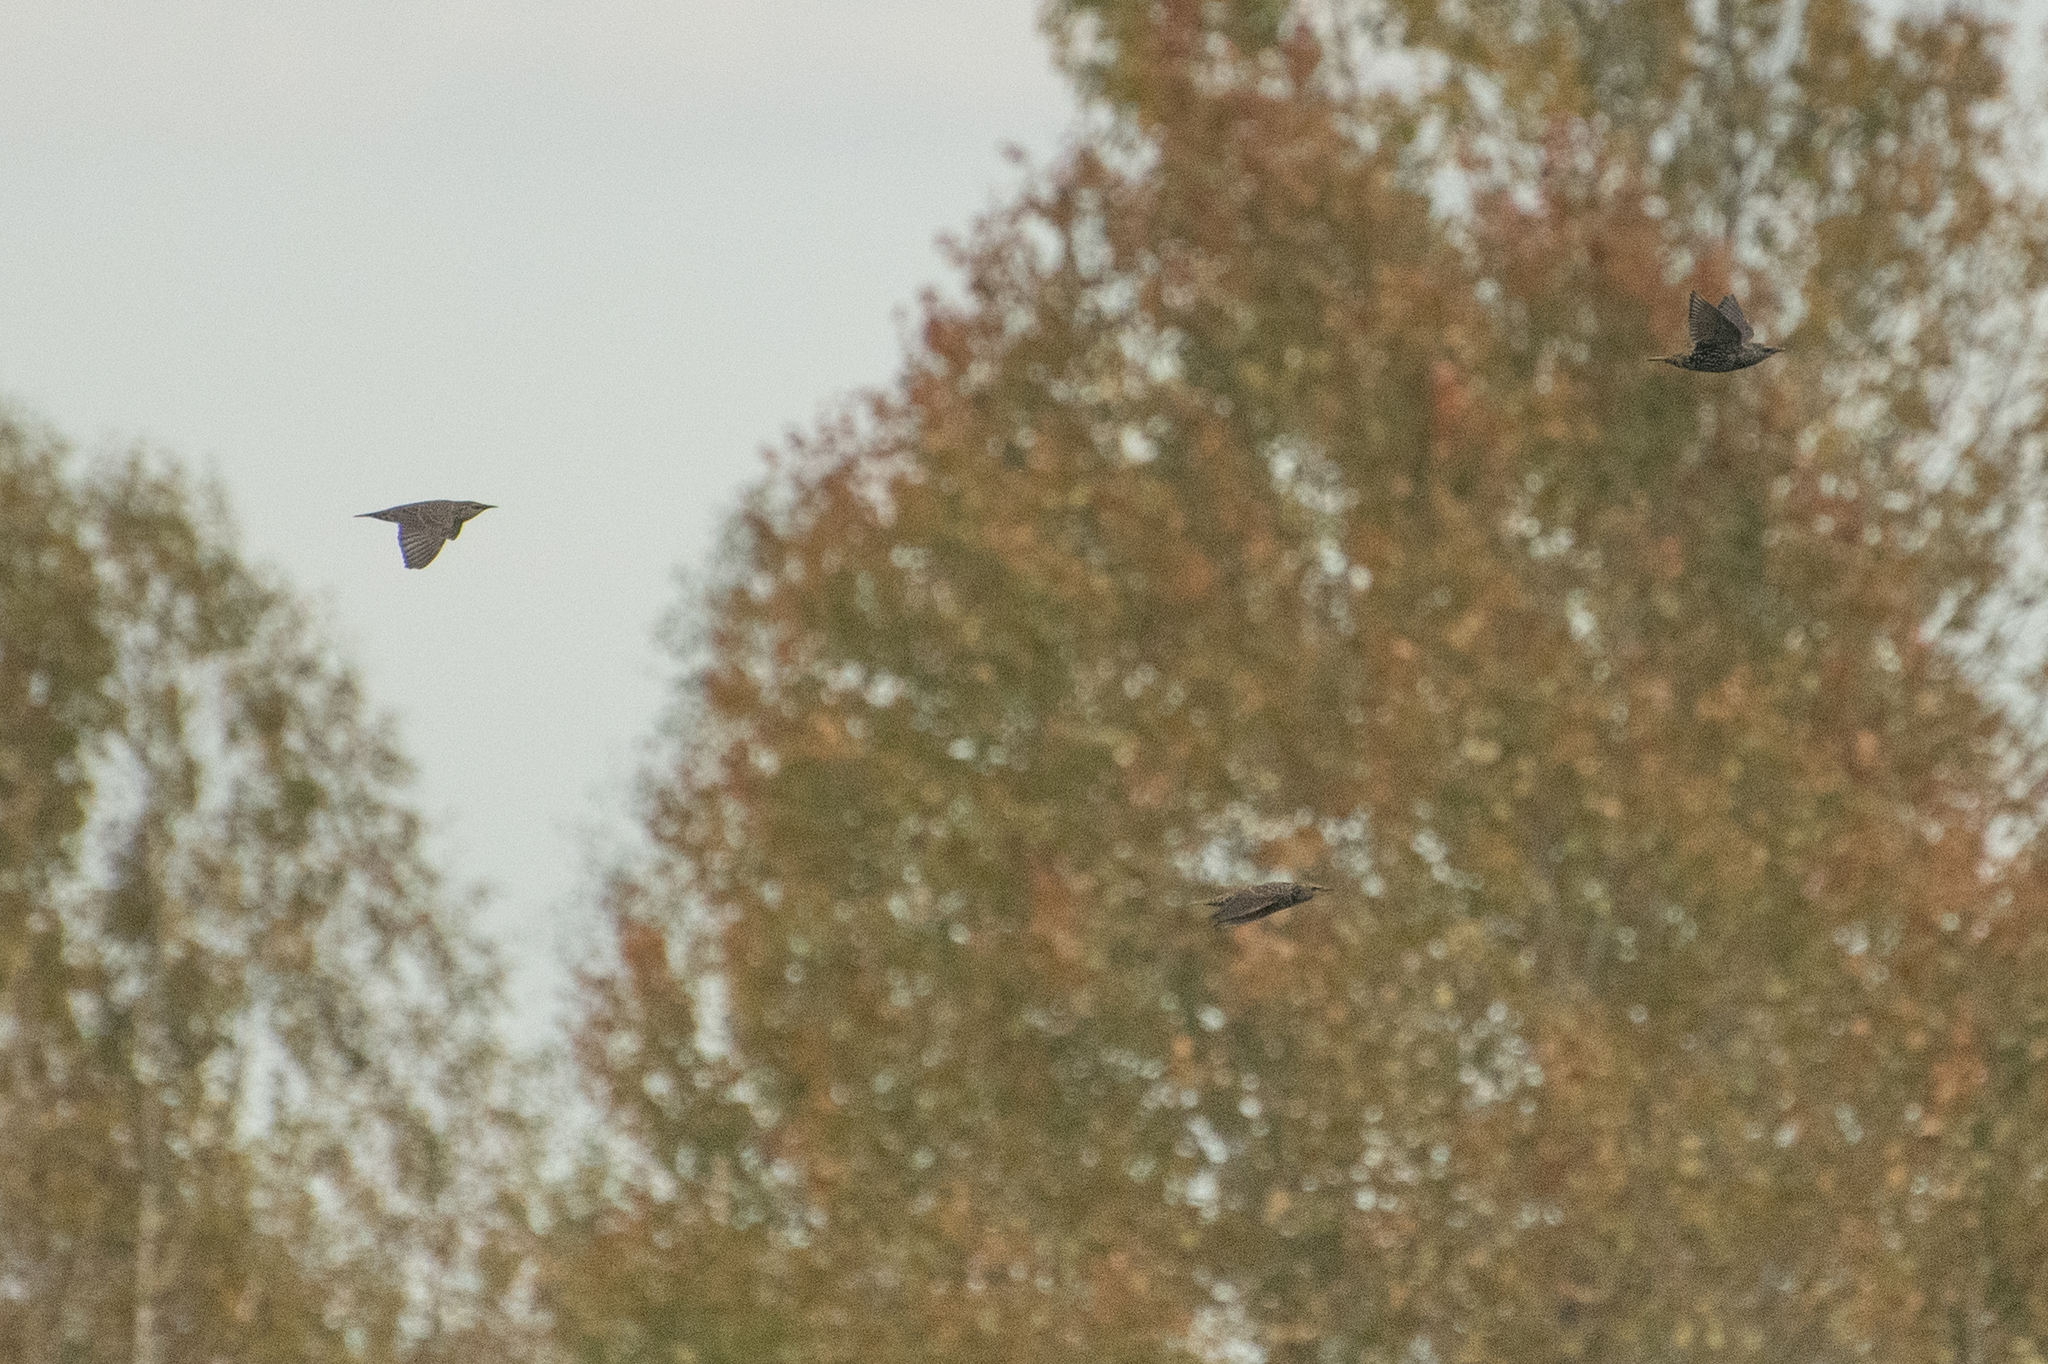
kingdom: Animalia
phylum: Chordata
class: Aves
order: Passeriformes
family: Sturnidae
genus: Sturnus
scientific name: Sturnus vulgaris
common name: Common starling
